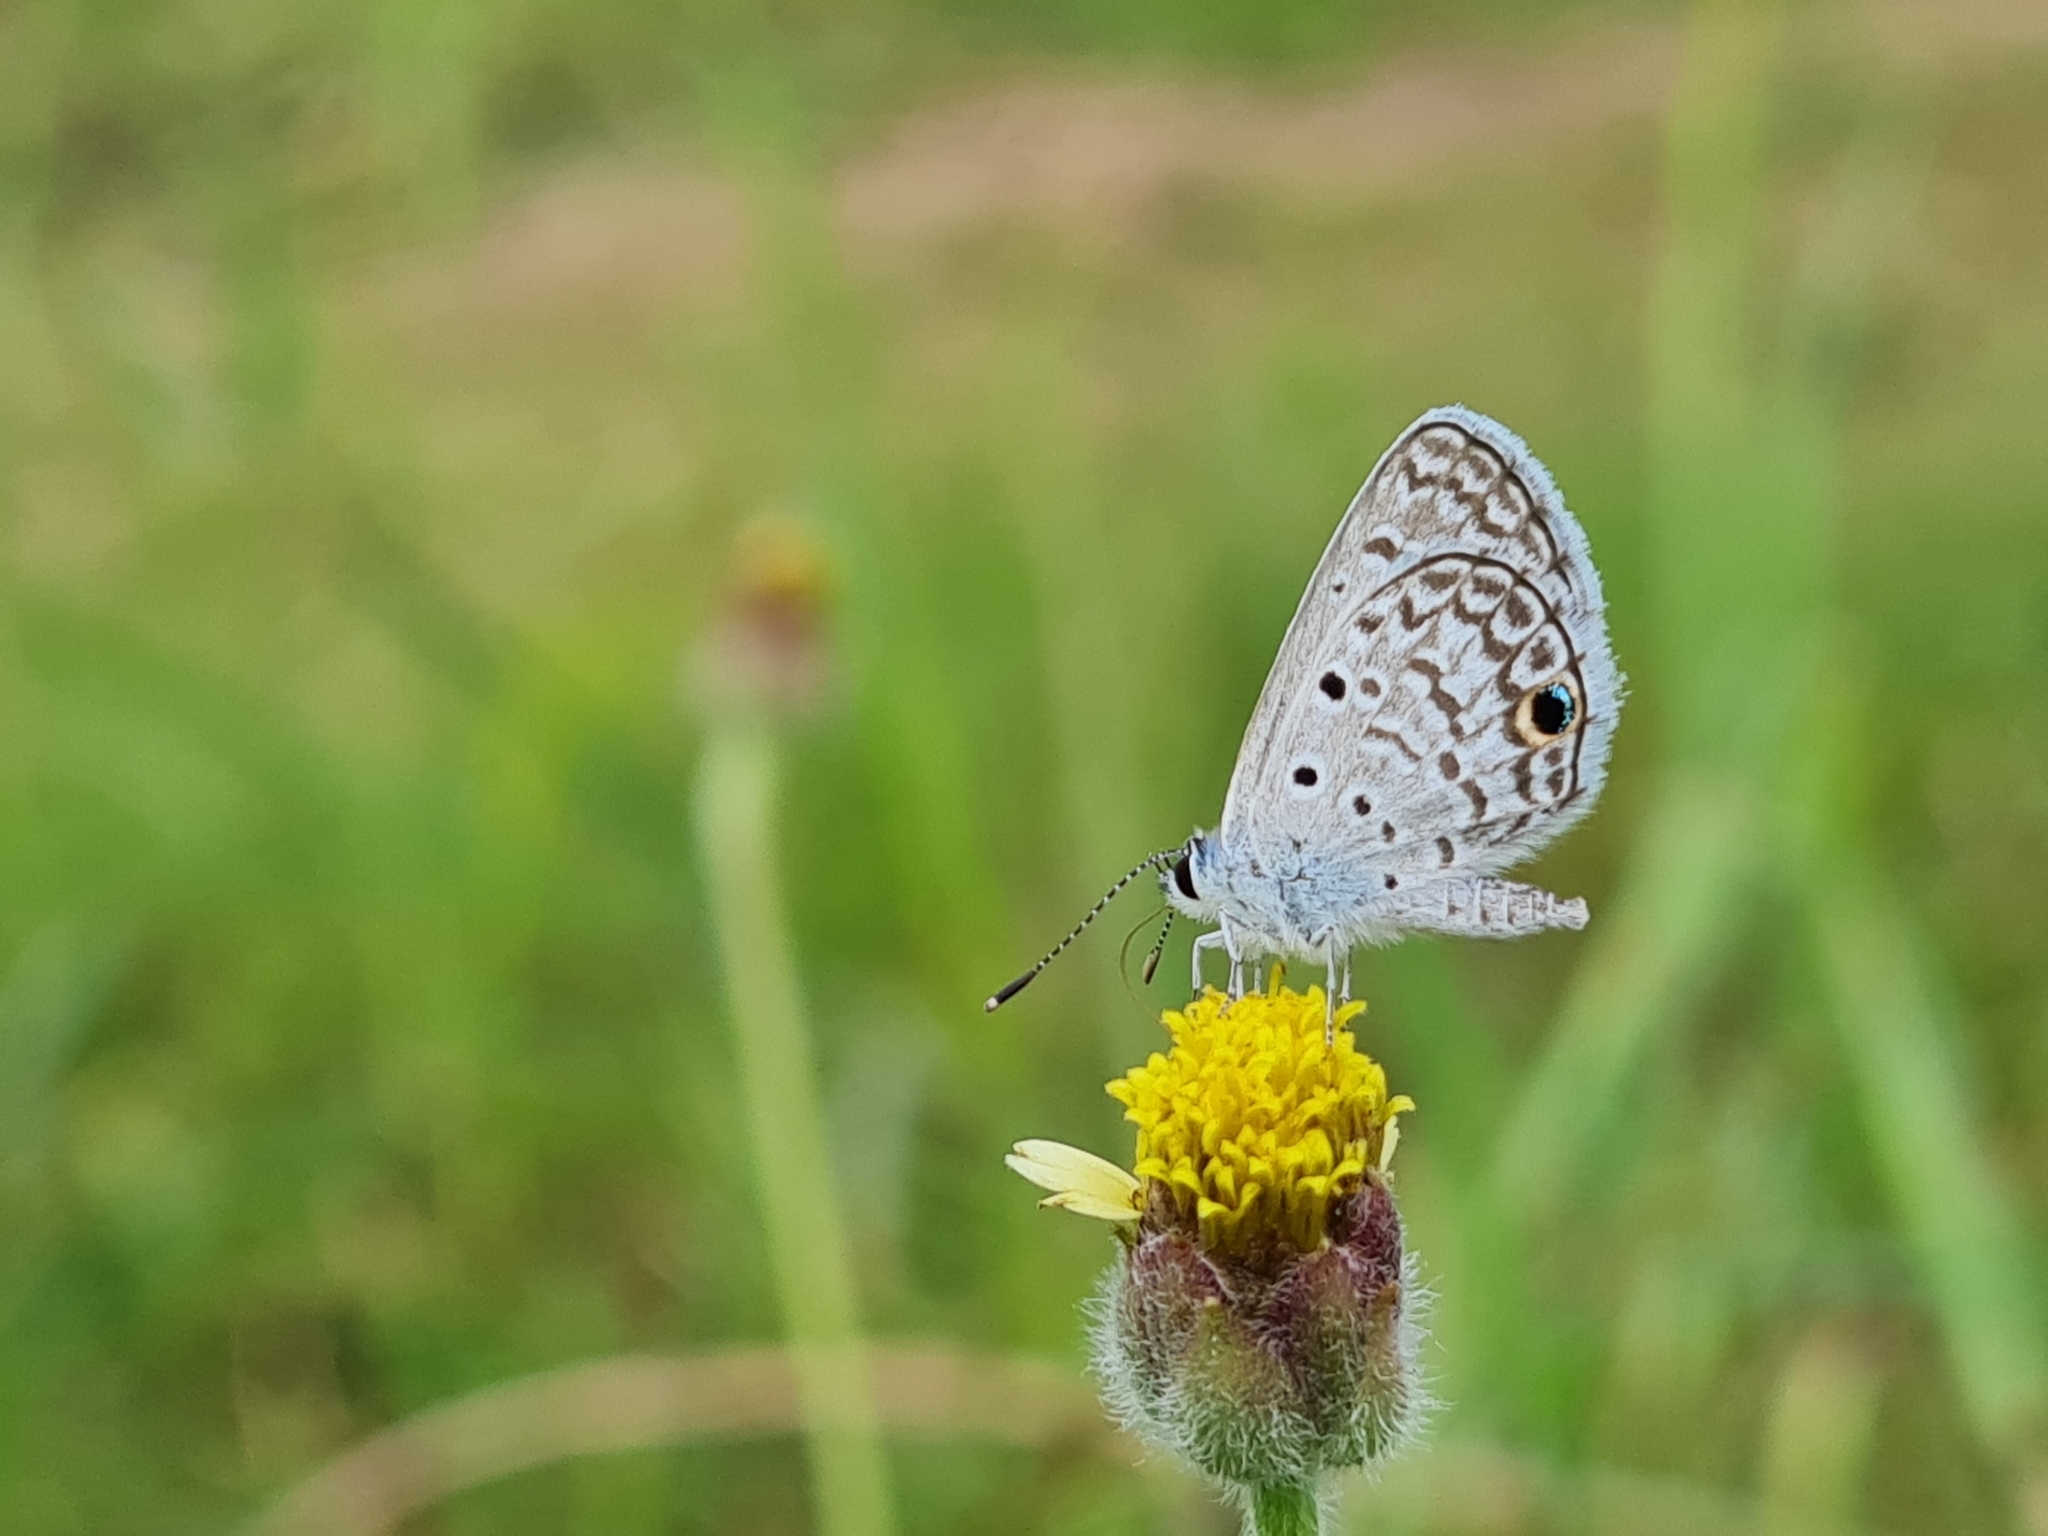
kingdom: Animalia
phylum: Arthropoda
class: Insecta
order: Lepidoptera
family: Lycaenidae
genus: Hemiargus
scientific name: Hemiargus ceraunus
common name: Ceraunus blue
